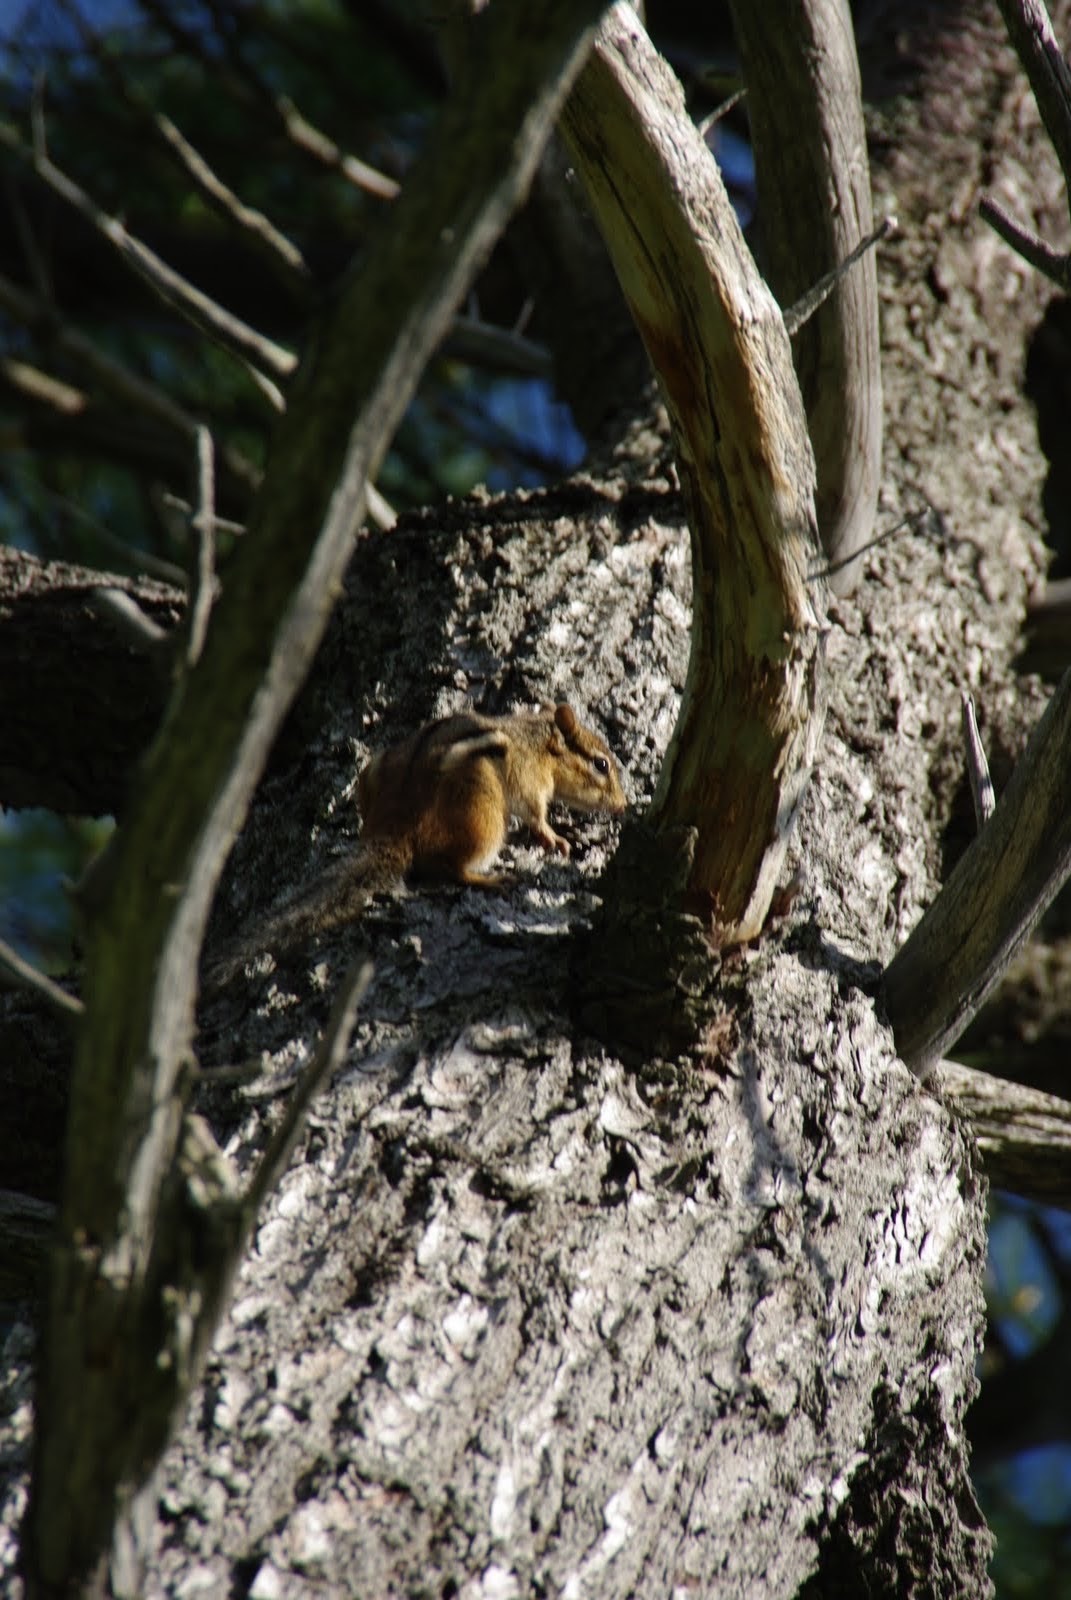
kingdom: Animalia
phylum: Chordata
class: Mammalia
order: Rodentia
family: Sciuridae
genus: Tamias
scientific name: Tamias striatus
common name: Eastern chipmunk
